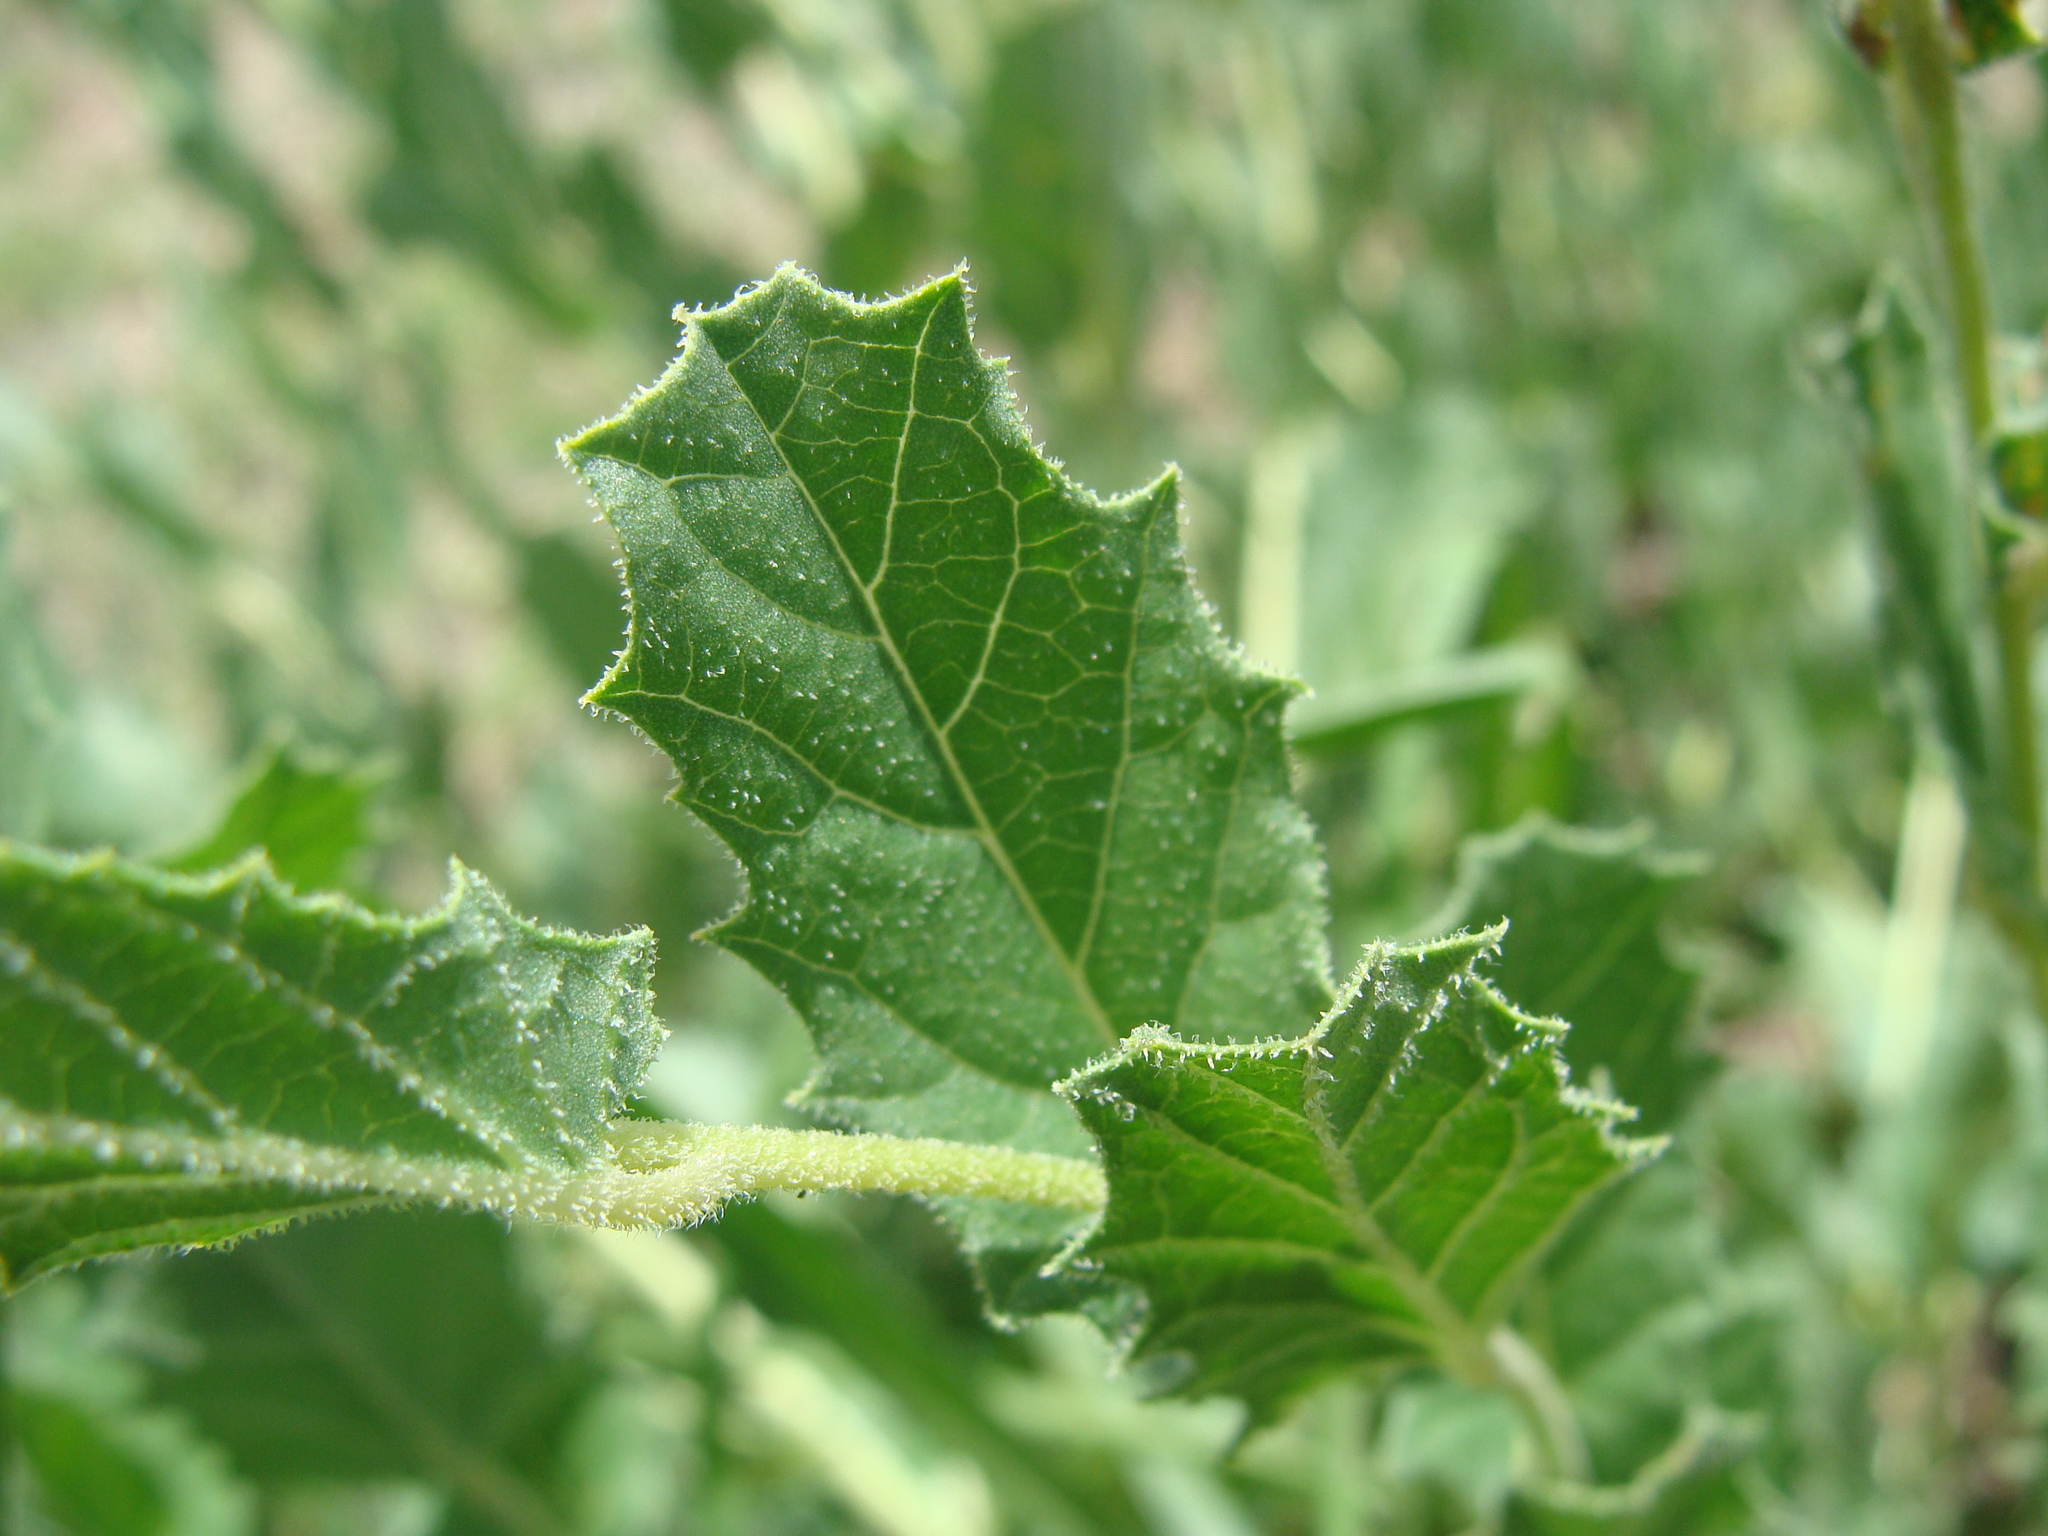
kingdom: Plantae
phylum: Tracheophyta
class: Magnoliopsida
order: Solanales
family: Convolvulaceae
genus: Ipomoea
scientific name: Ipomoea stans
